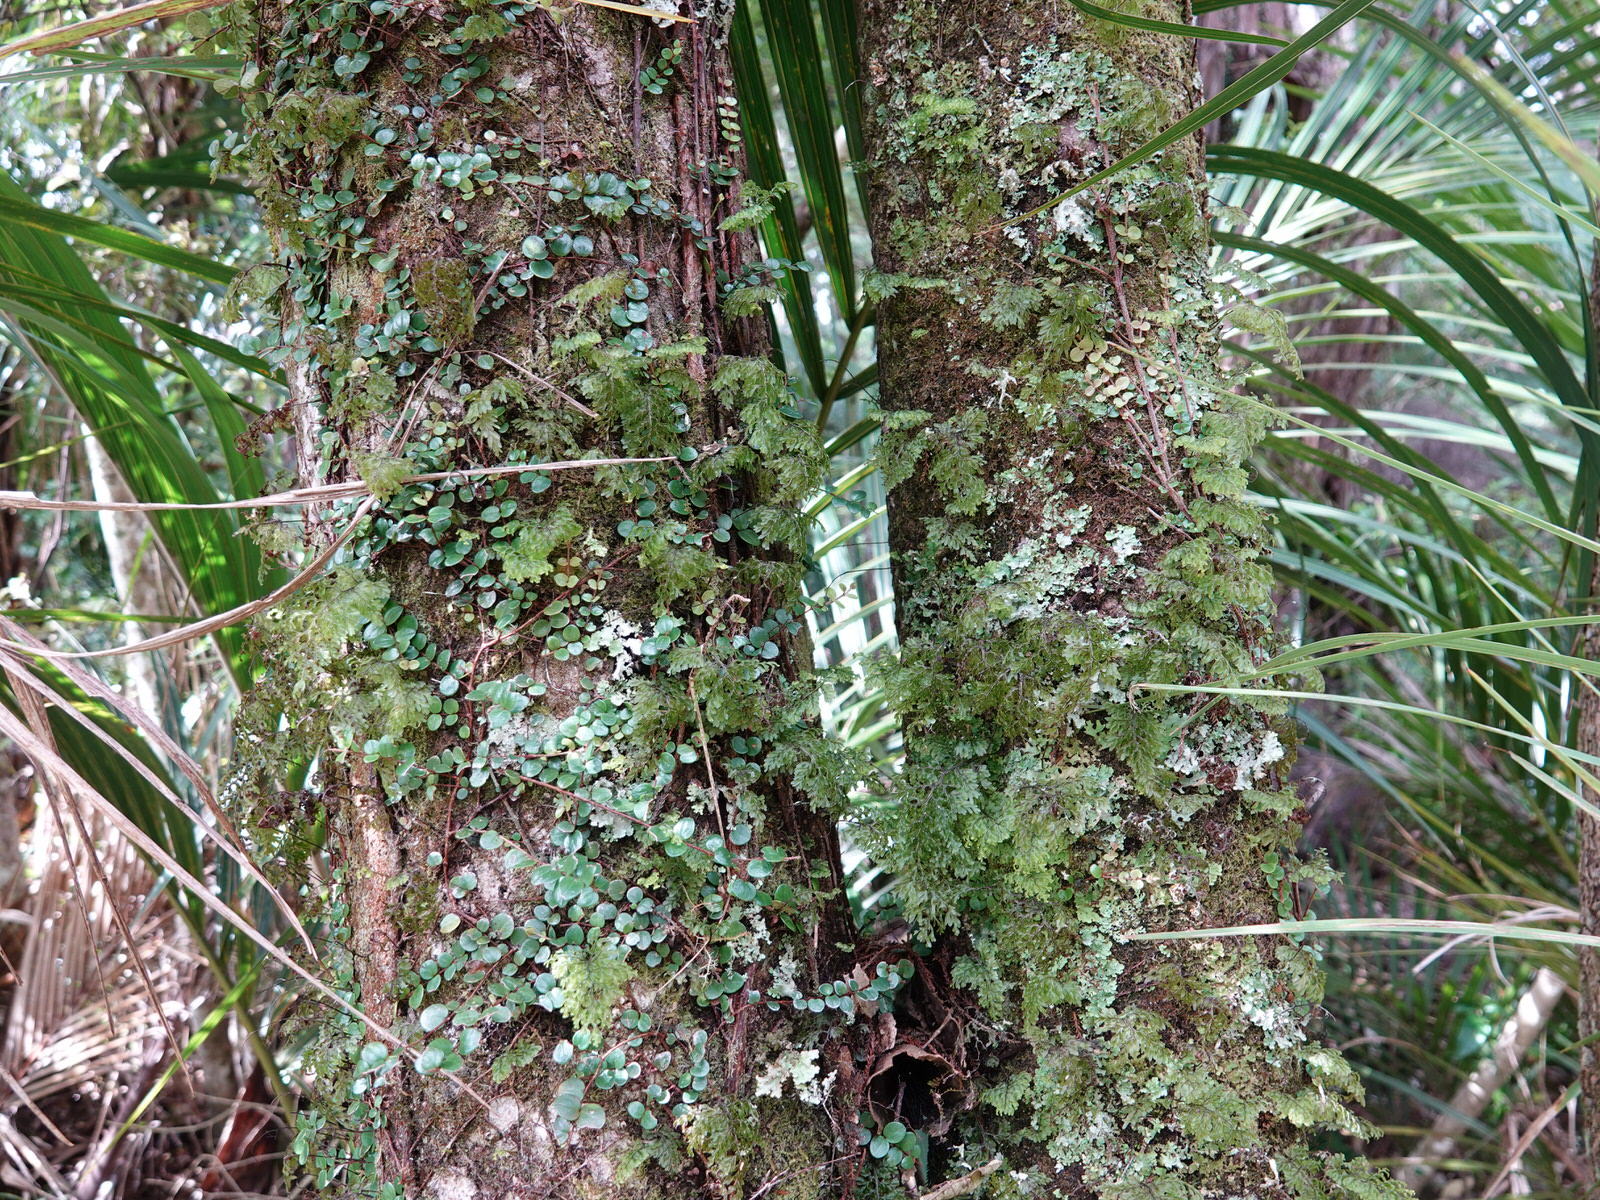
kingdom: Plantae
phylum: Tracheophyta
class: Polypodiopsida
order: Hymenophyllales
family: Hymenophyllaceae
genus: Hymenophyllum
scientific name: Hymenophyllum sanguinolentum
